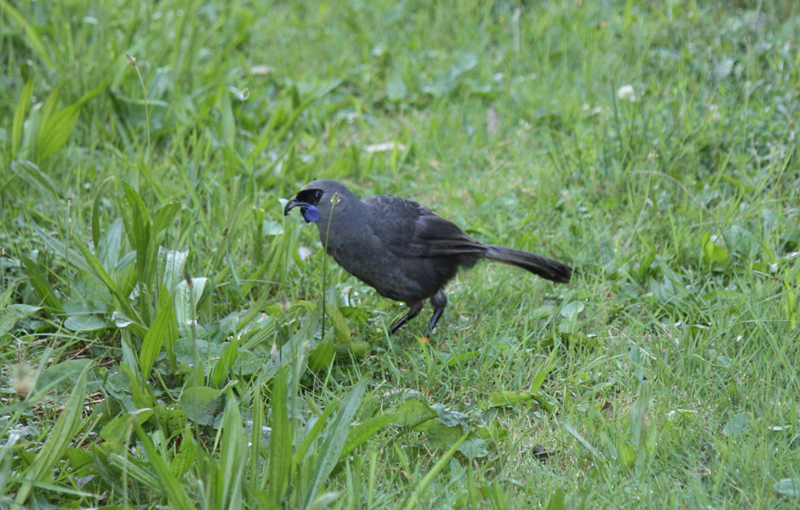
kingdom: Animalia
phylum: Chordata
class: Aves
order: Passeriformes
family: Callaeatidae
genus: Callaeas
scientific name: Callaeas cinereus
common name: South island kokako
